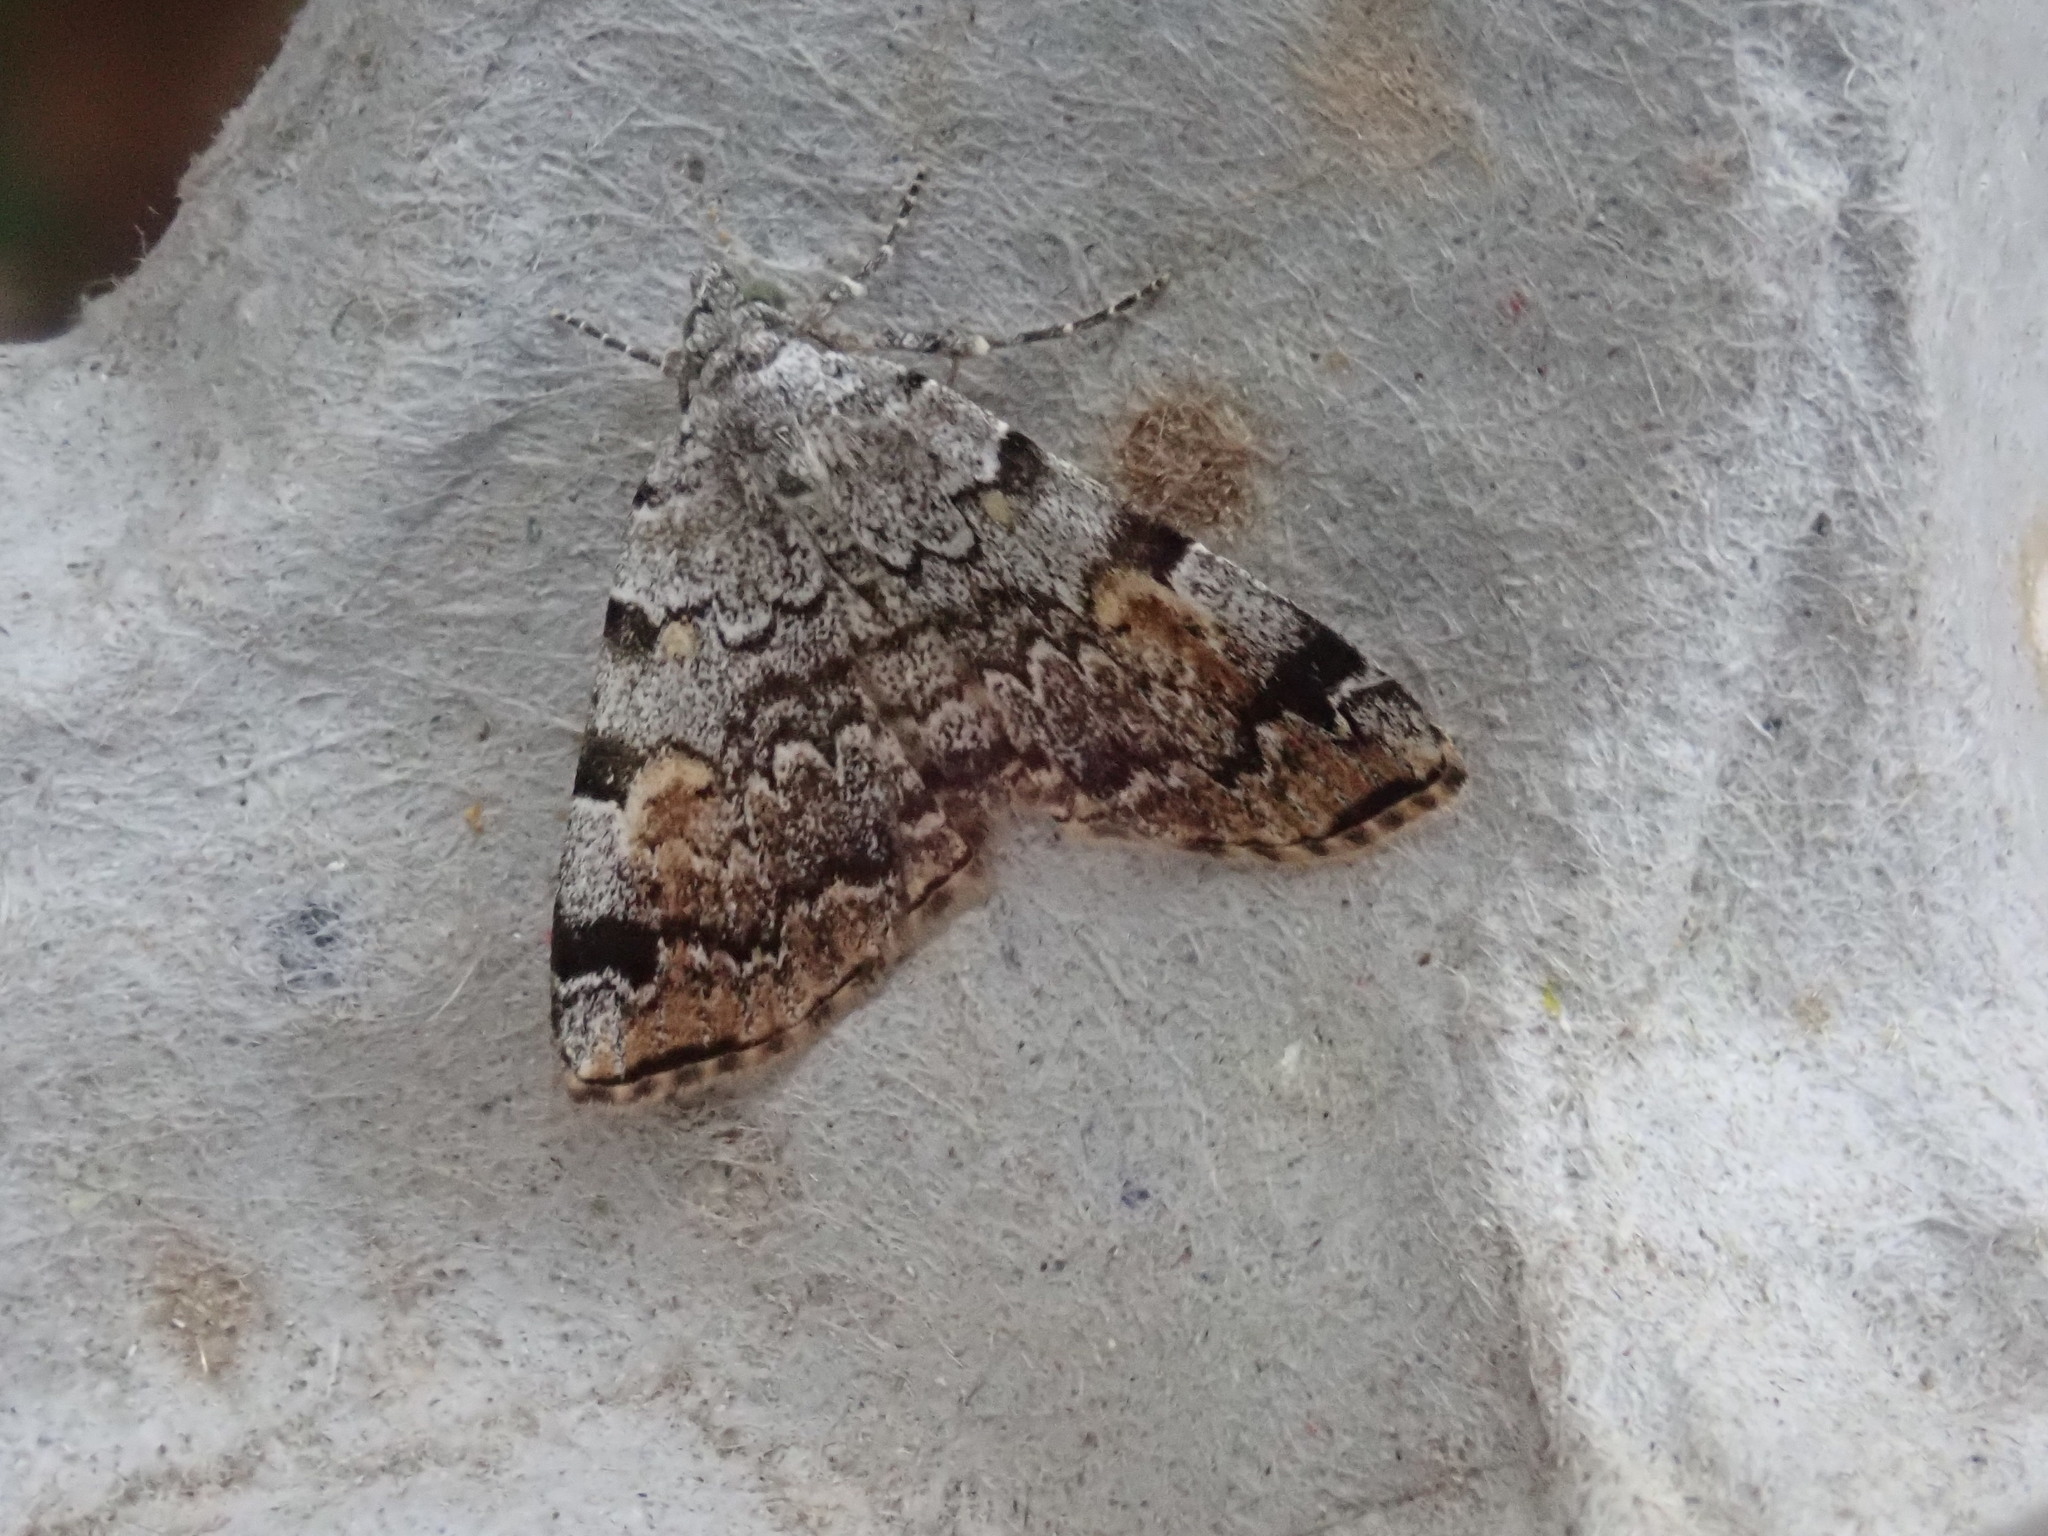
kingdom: Animalia
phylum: Arthropoda
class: Insecta
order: Lepidoptera
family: Erebidae
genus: Idia
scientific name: Idia americalis
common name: American idia moth
